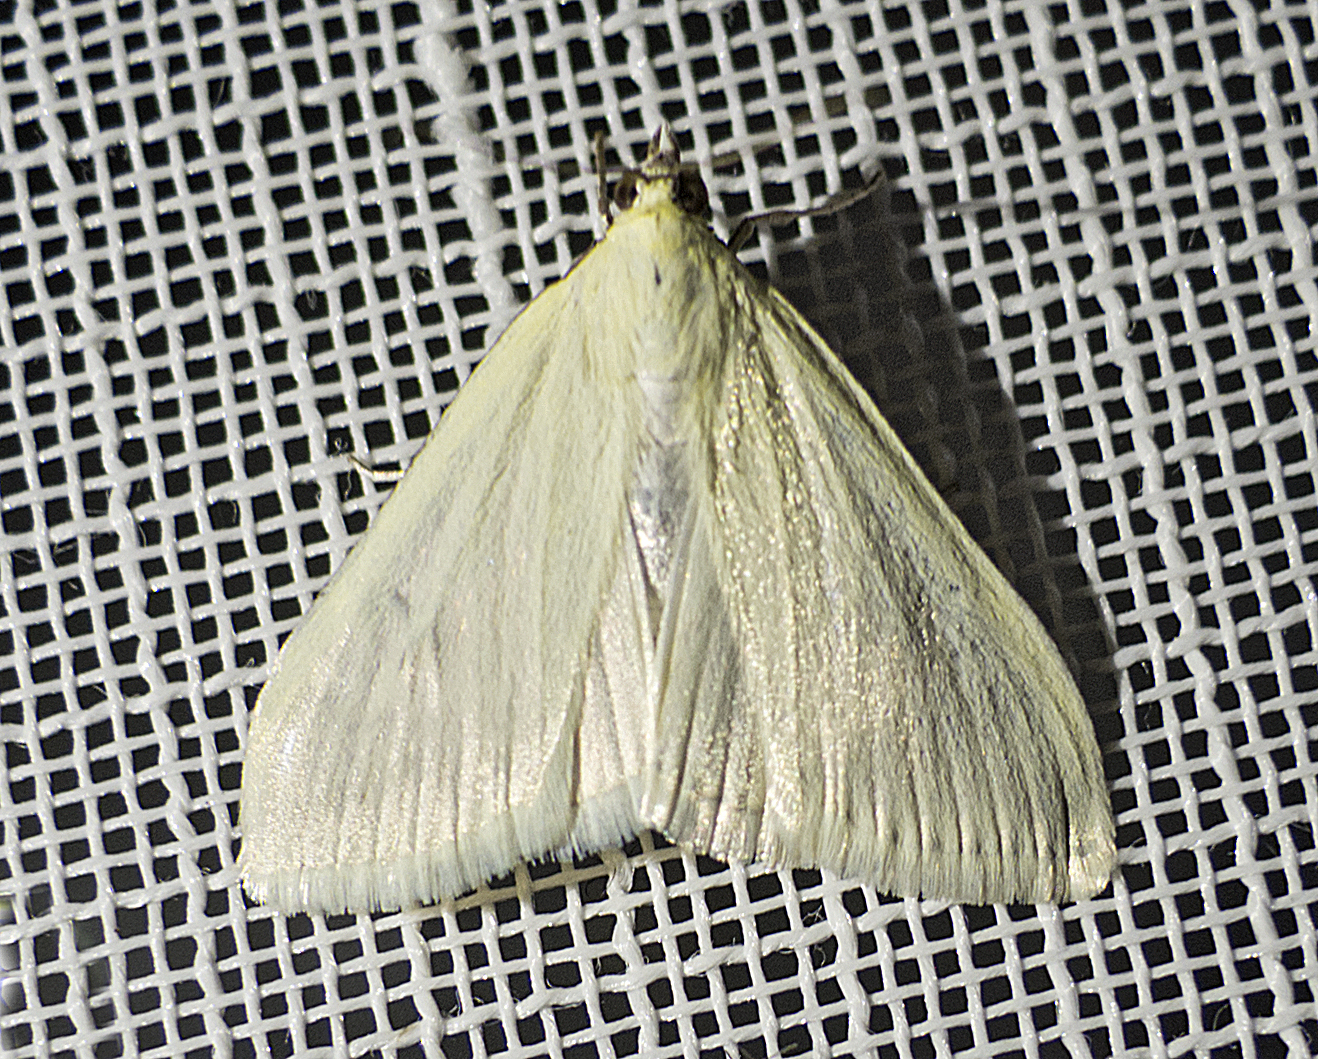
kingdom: Animalia
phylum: Arthropoda
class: Insecta
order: Lepidoptera
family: Crambidae
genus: Sitochroa
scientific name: Sitochroa palealis
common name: Greenish-yellow sitochroa moth
